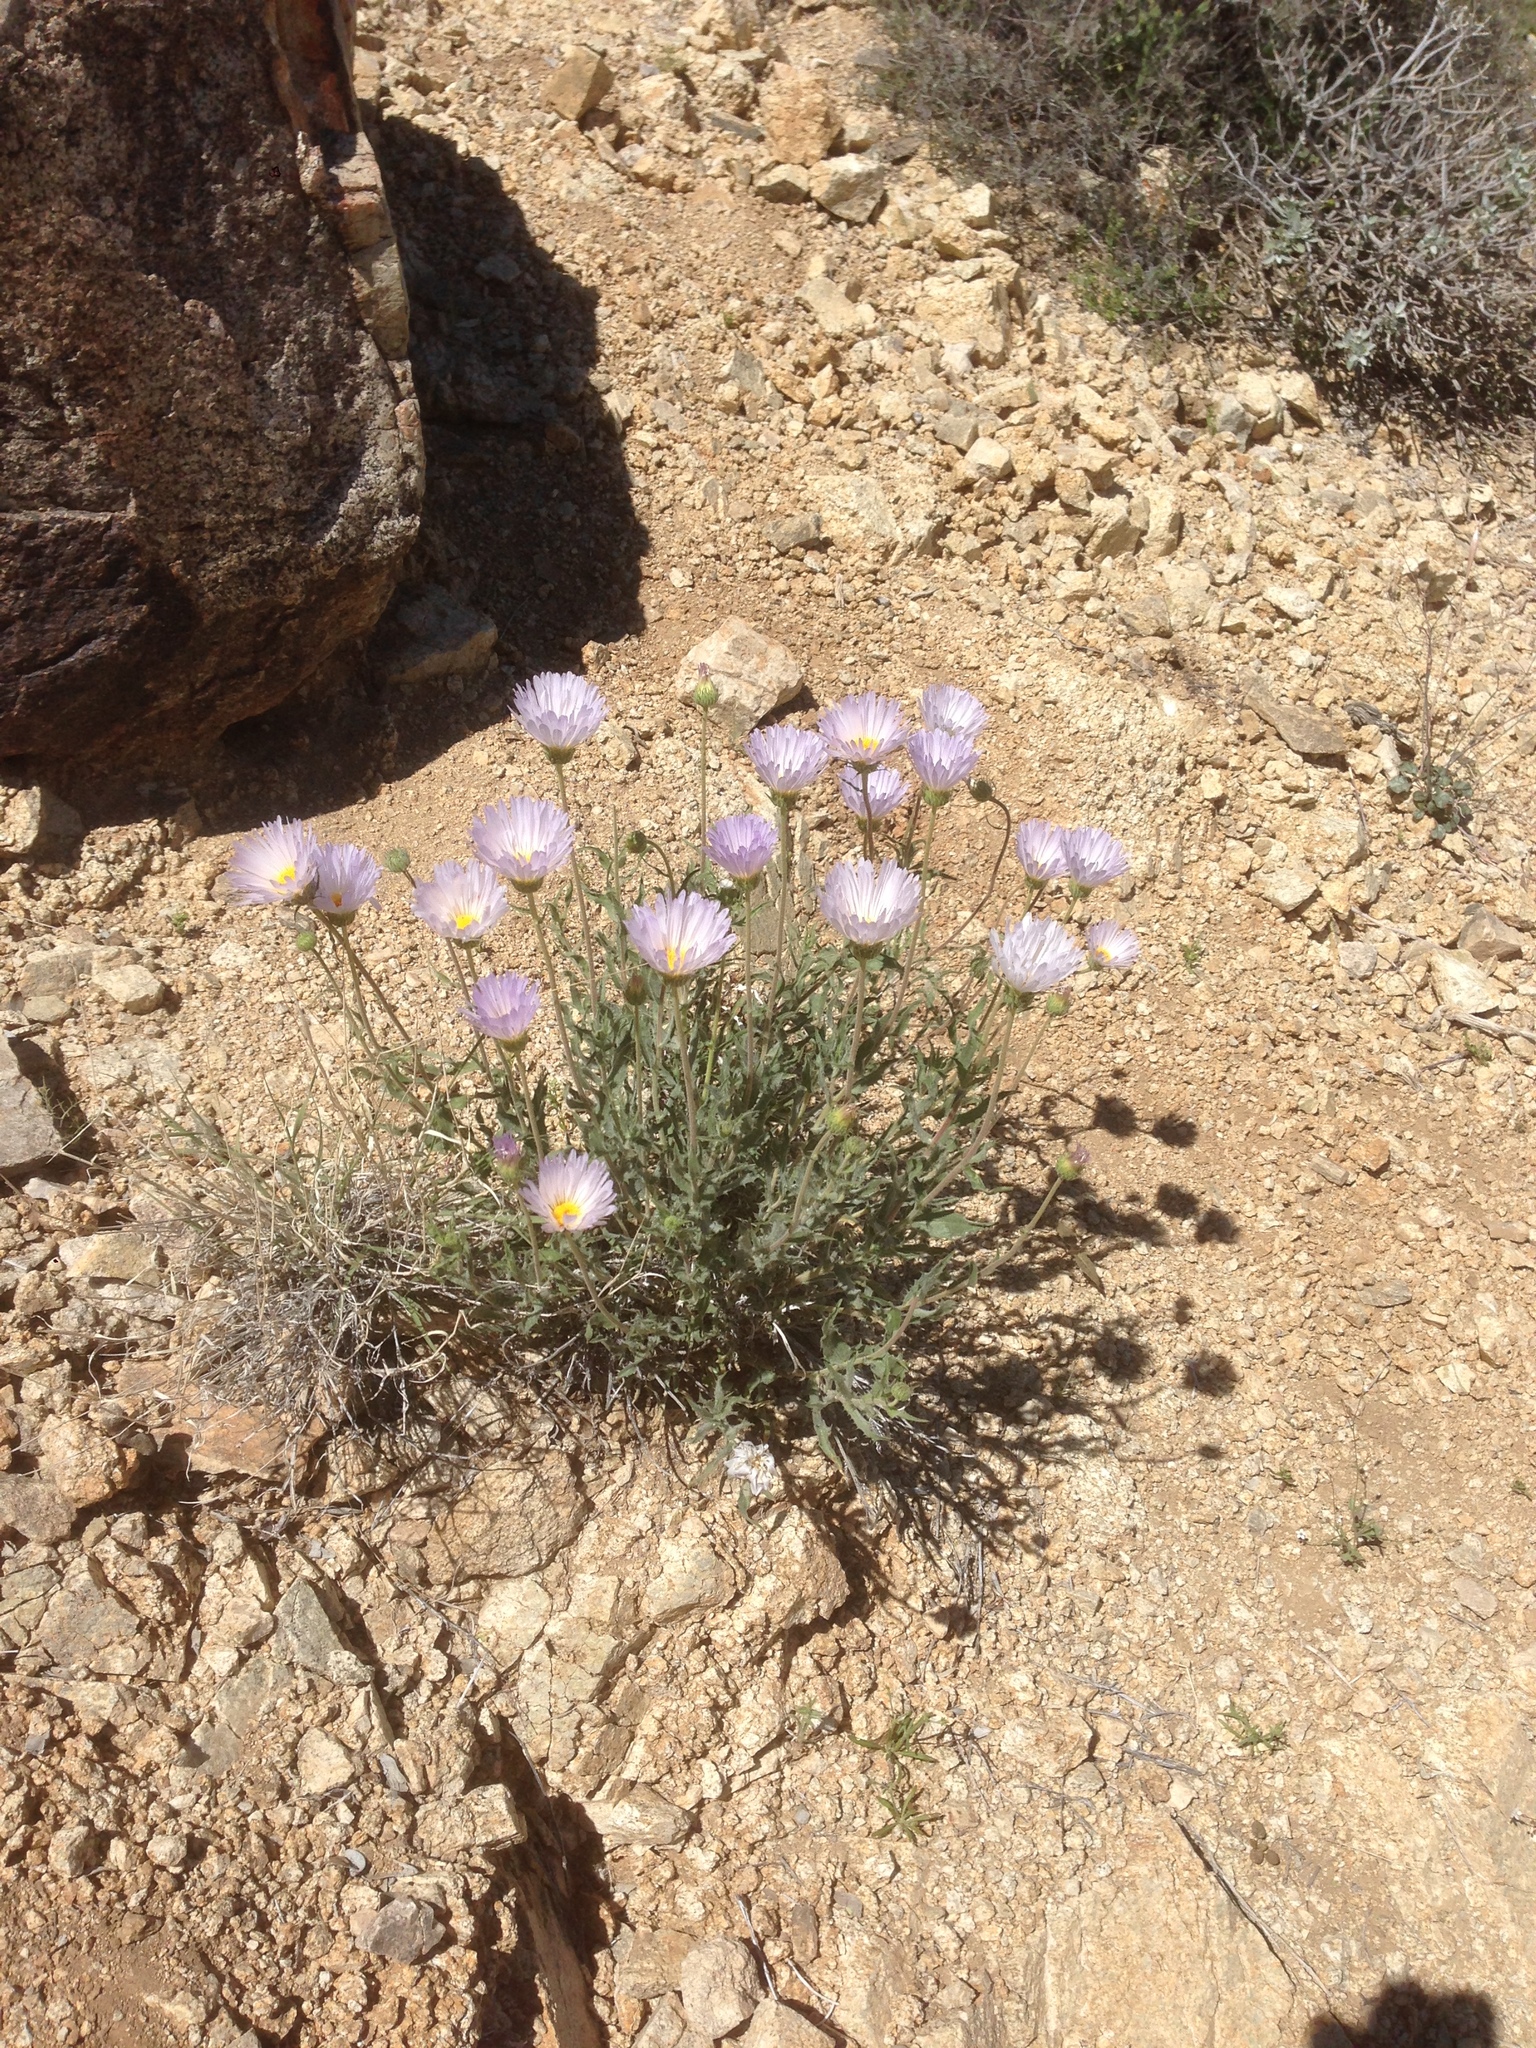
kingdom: Plantae
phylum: Tracheophyta
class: Magnoliopsida
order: Asterales
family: Asteraceae
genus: Xylorhiza
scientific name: Xylorhiza tortifolia
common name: Hurt-leaf woody-aster
